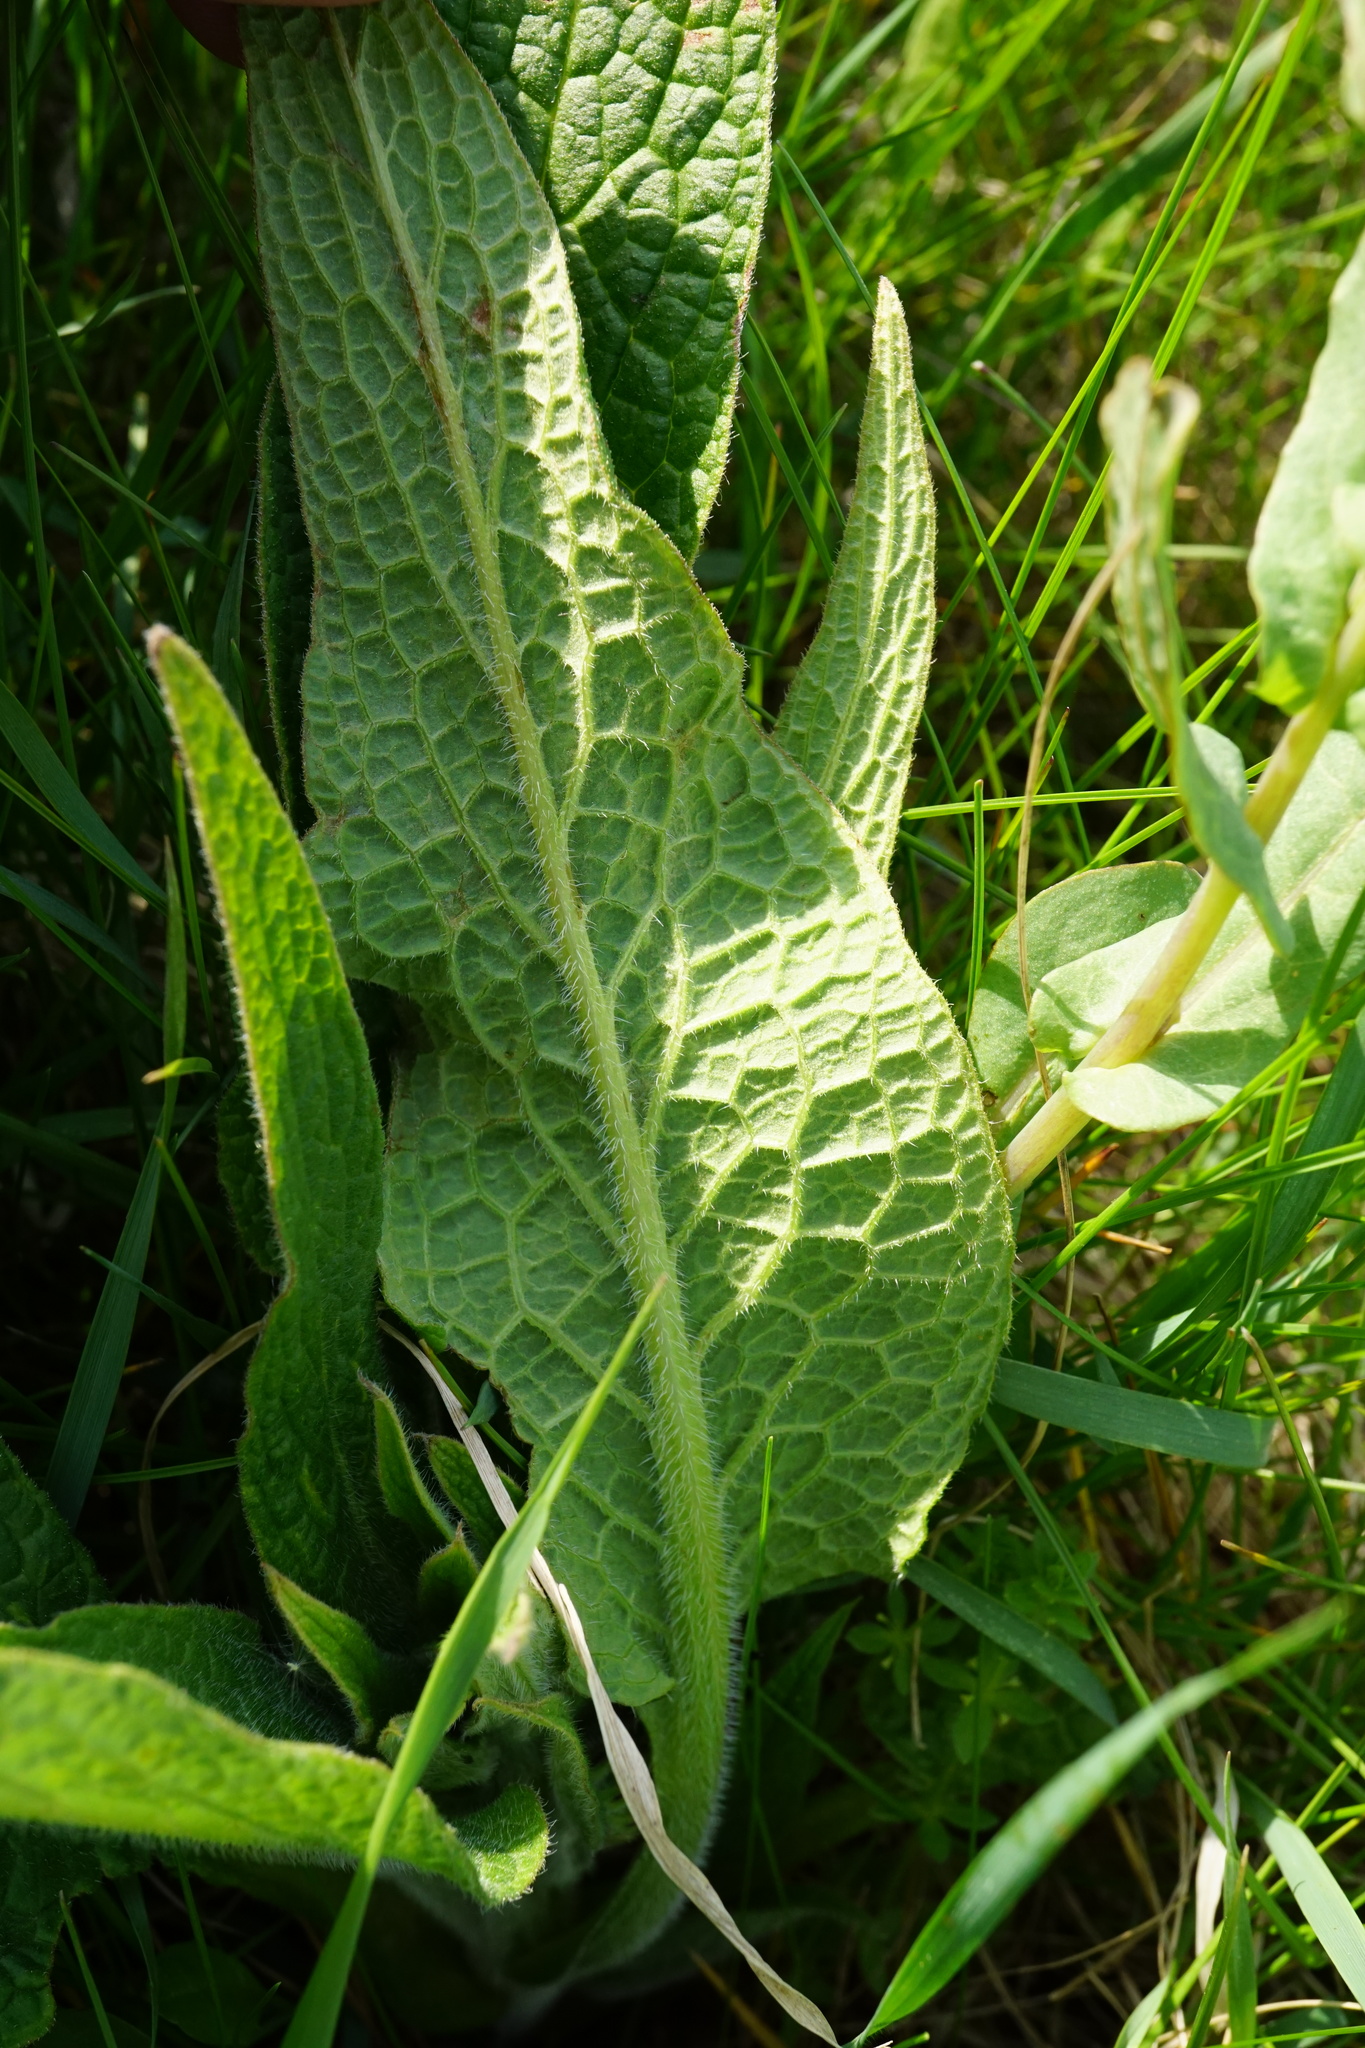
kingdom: Plantae
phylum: Tracheophyta
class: Magnoliopsida
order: Boraginales
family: Boraginaceae
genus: Symphytum
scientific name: Symphytum officinale
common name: Common comfrey
